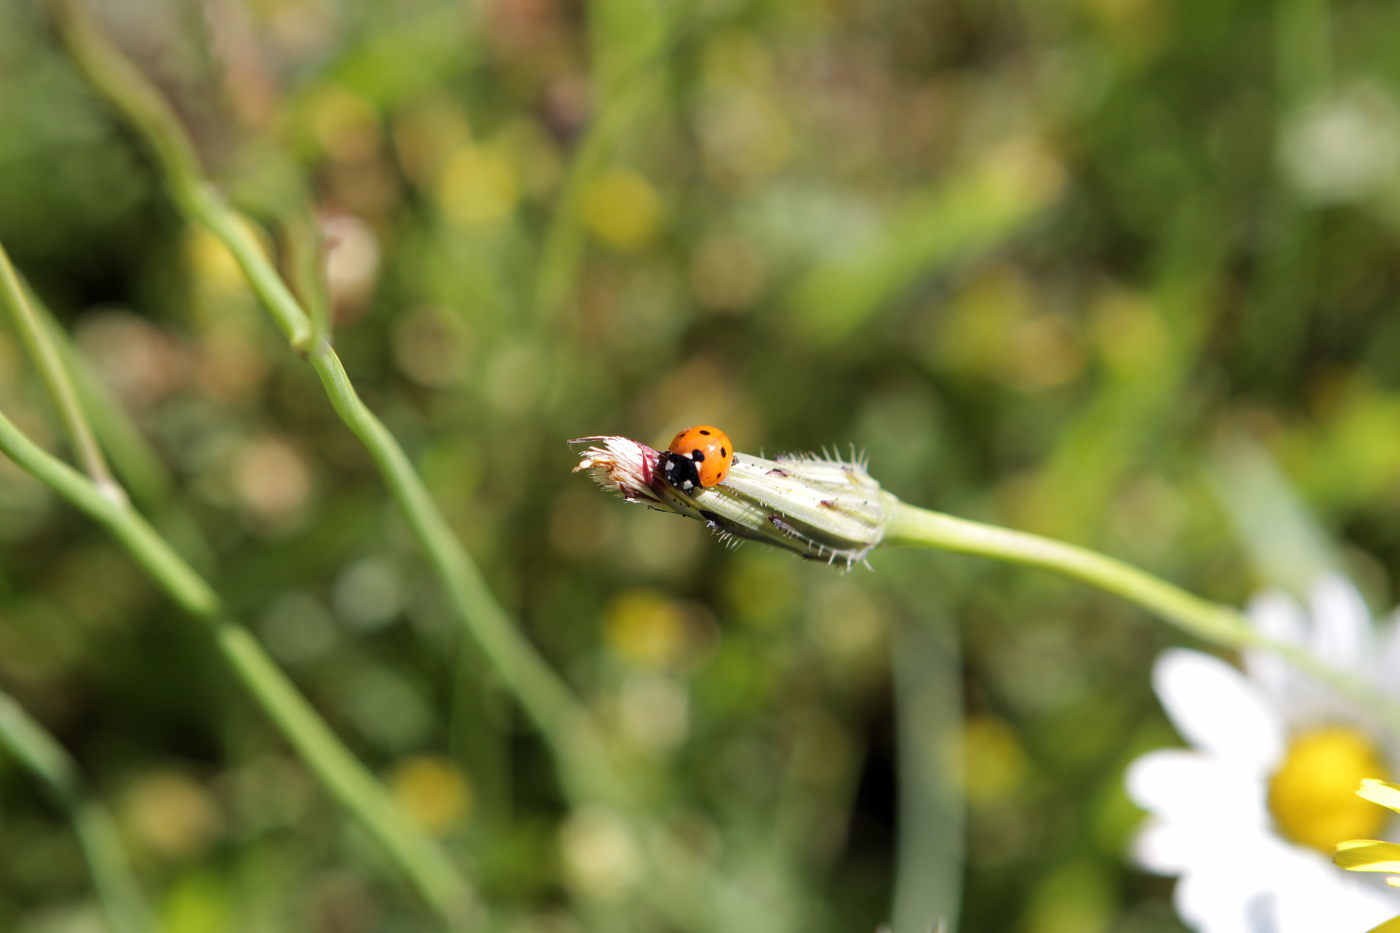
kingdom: Animalia
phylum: Arthropoda
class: Insecta
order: Coleoptera
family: Coccinellidae
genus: Coccinella
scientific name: Coccinella septempunctata
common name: Sevenspotted lady beetle
